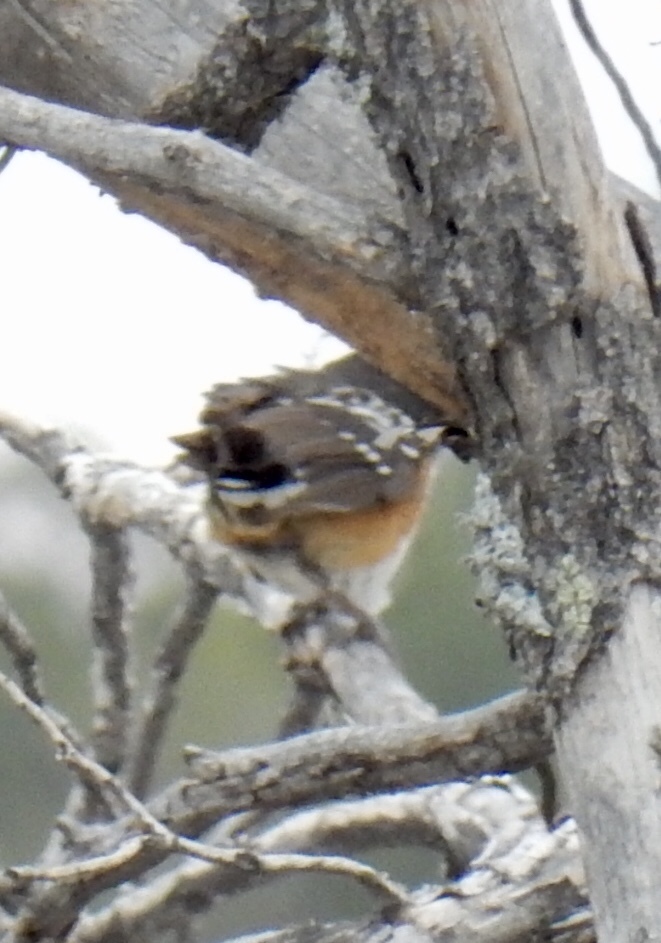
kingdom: Animalia
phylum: Chordata
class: Aves
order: Passeriformes
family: Passerellidae
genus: Pipilo
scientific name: Pipilo maculatus
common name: Spotted towhee
